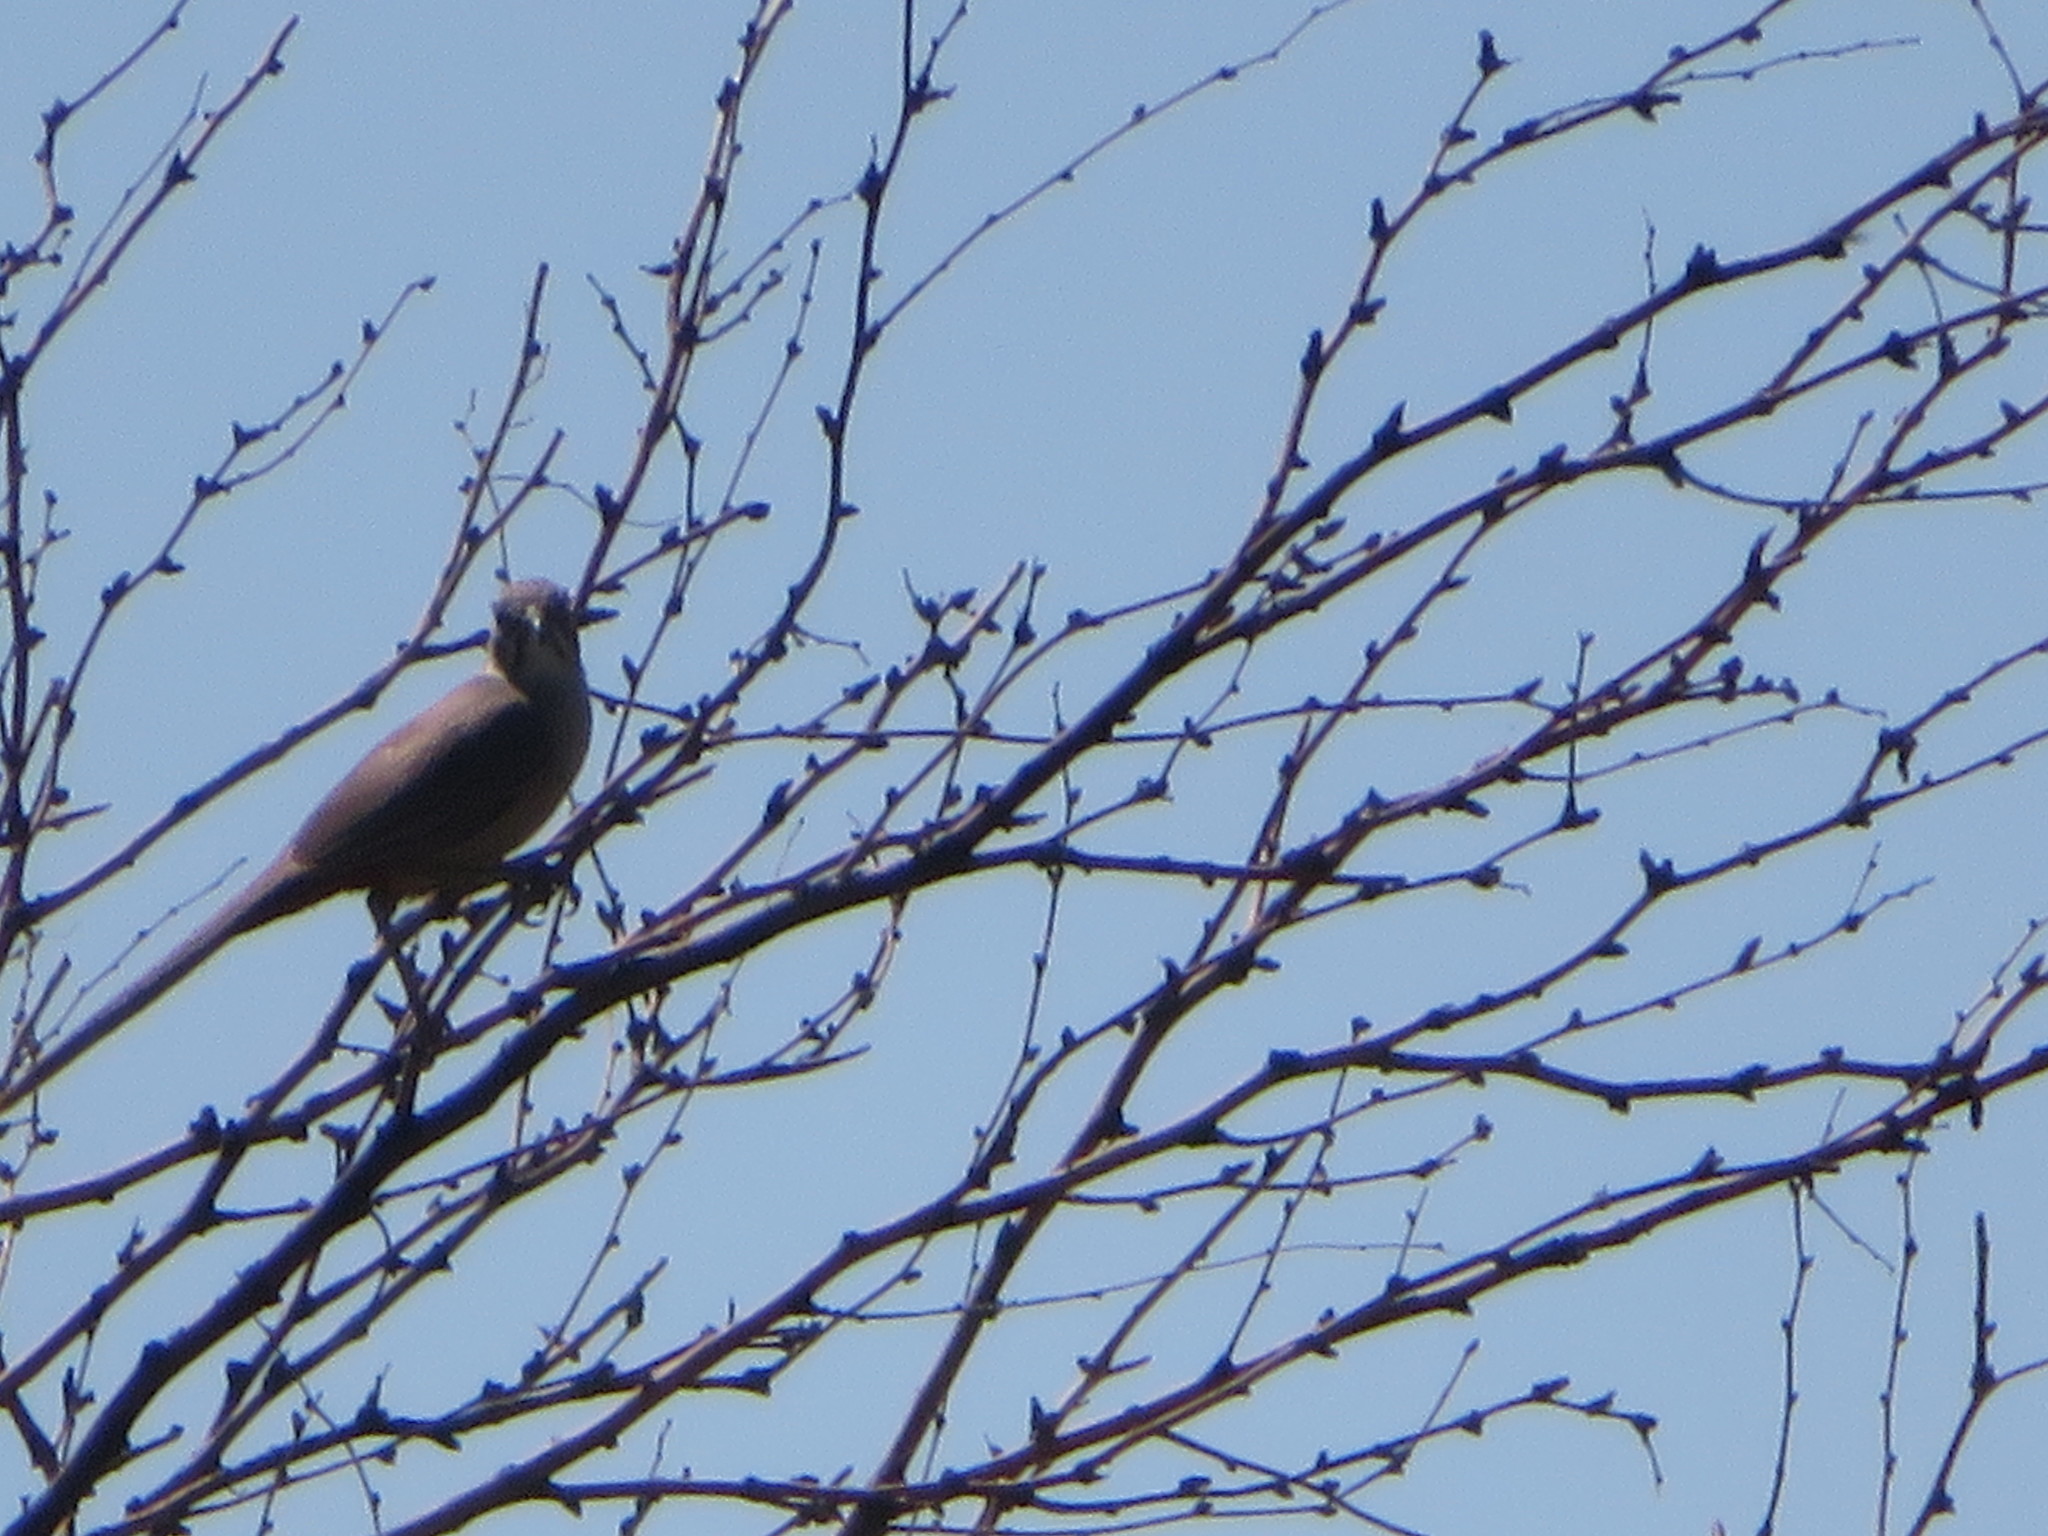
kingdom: Animalia
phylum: Chordata
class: Aves
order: Passeriformes
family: Mimidae
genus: Toxostoma
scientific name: Toxostoma crissale
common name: Crissal thrasher
